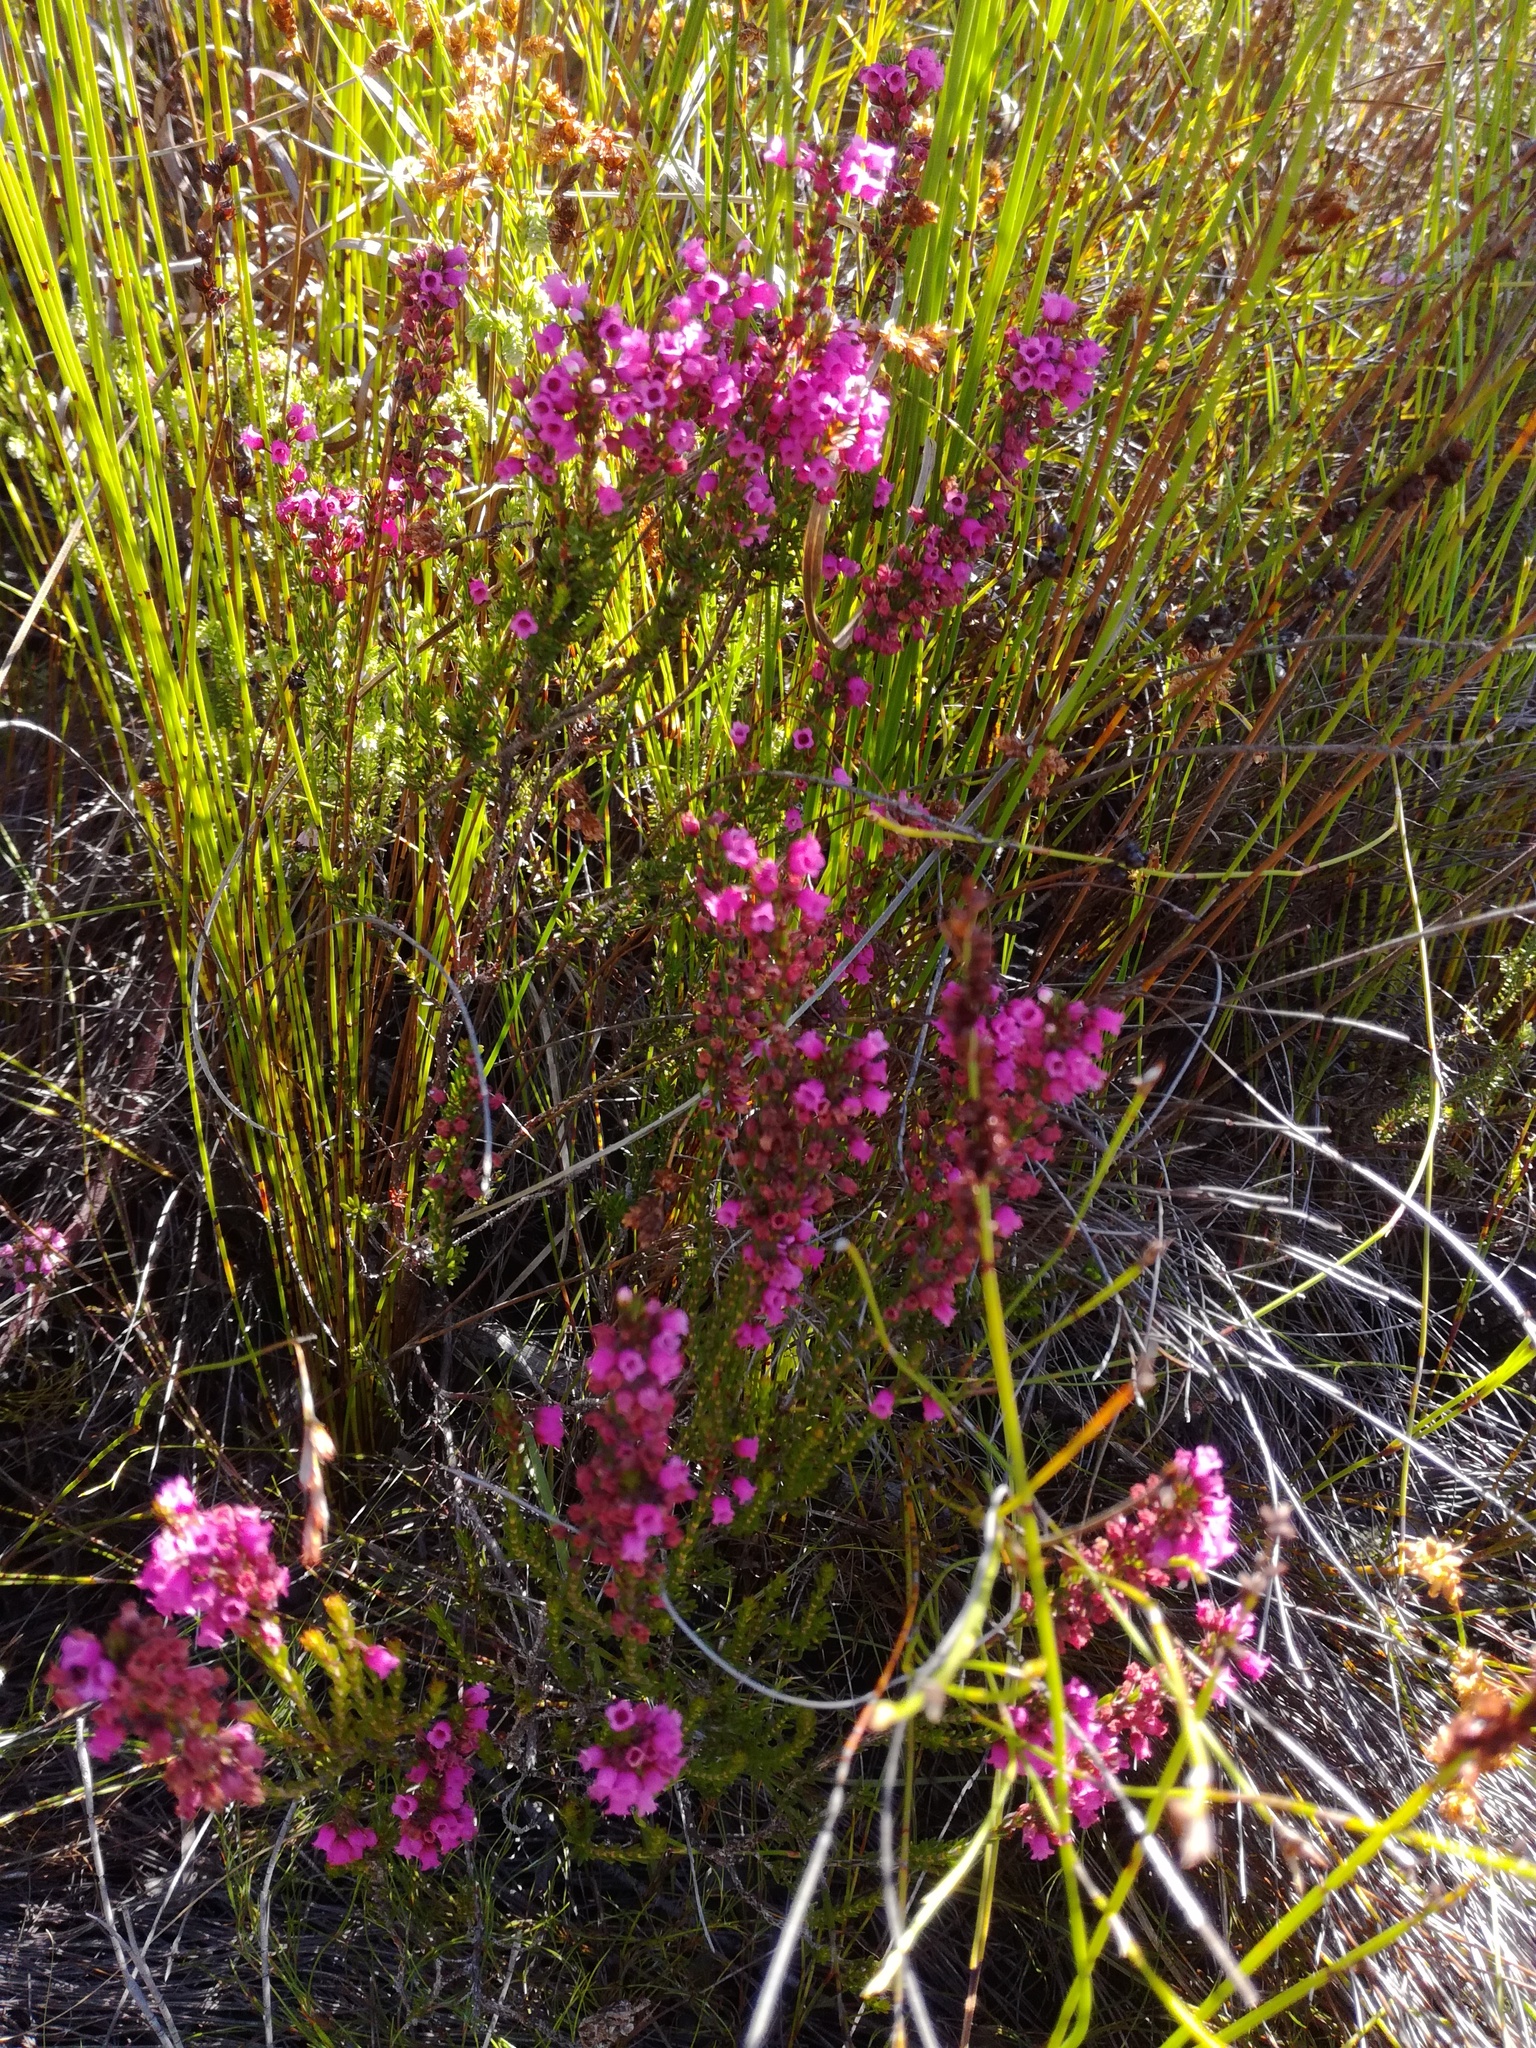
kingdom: Plantae
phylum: Tracheophyta
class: Magnoliopsida
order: Ericales
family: Ericaceae
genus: Erica
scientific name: Erica pulchella
